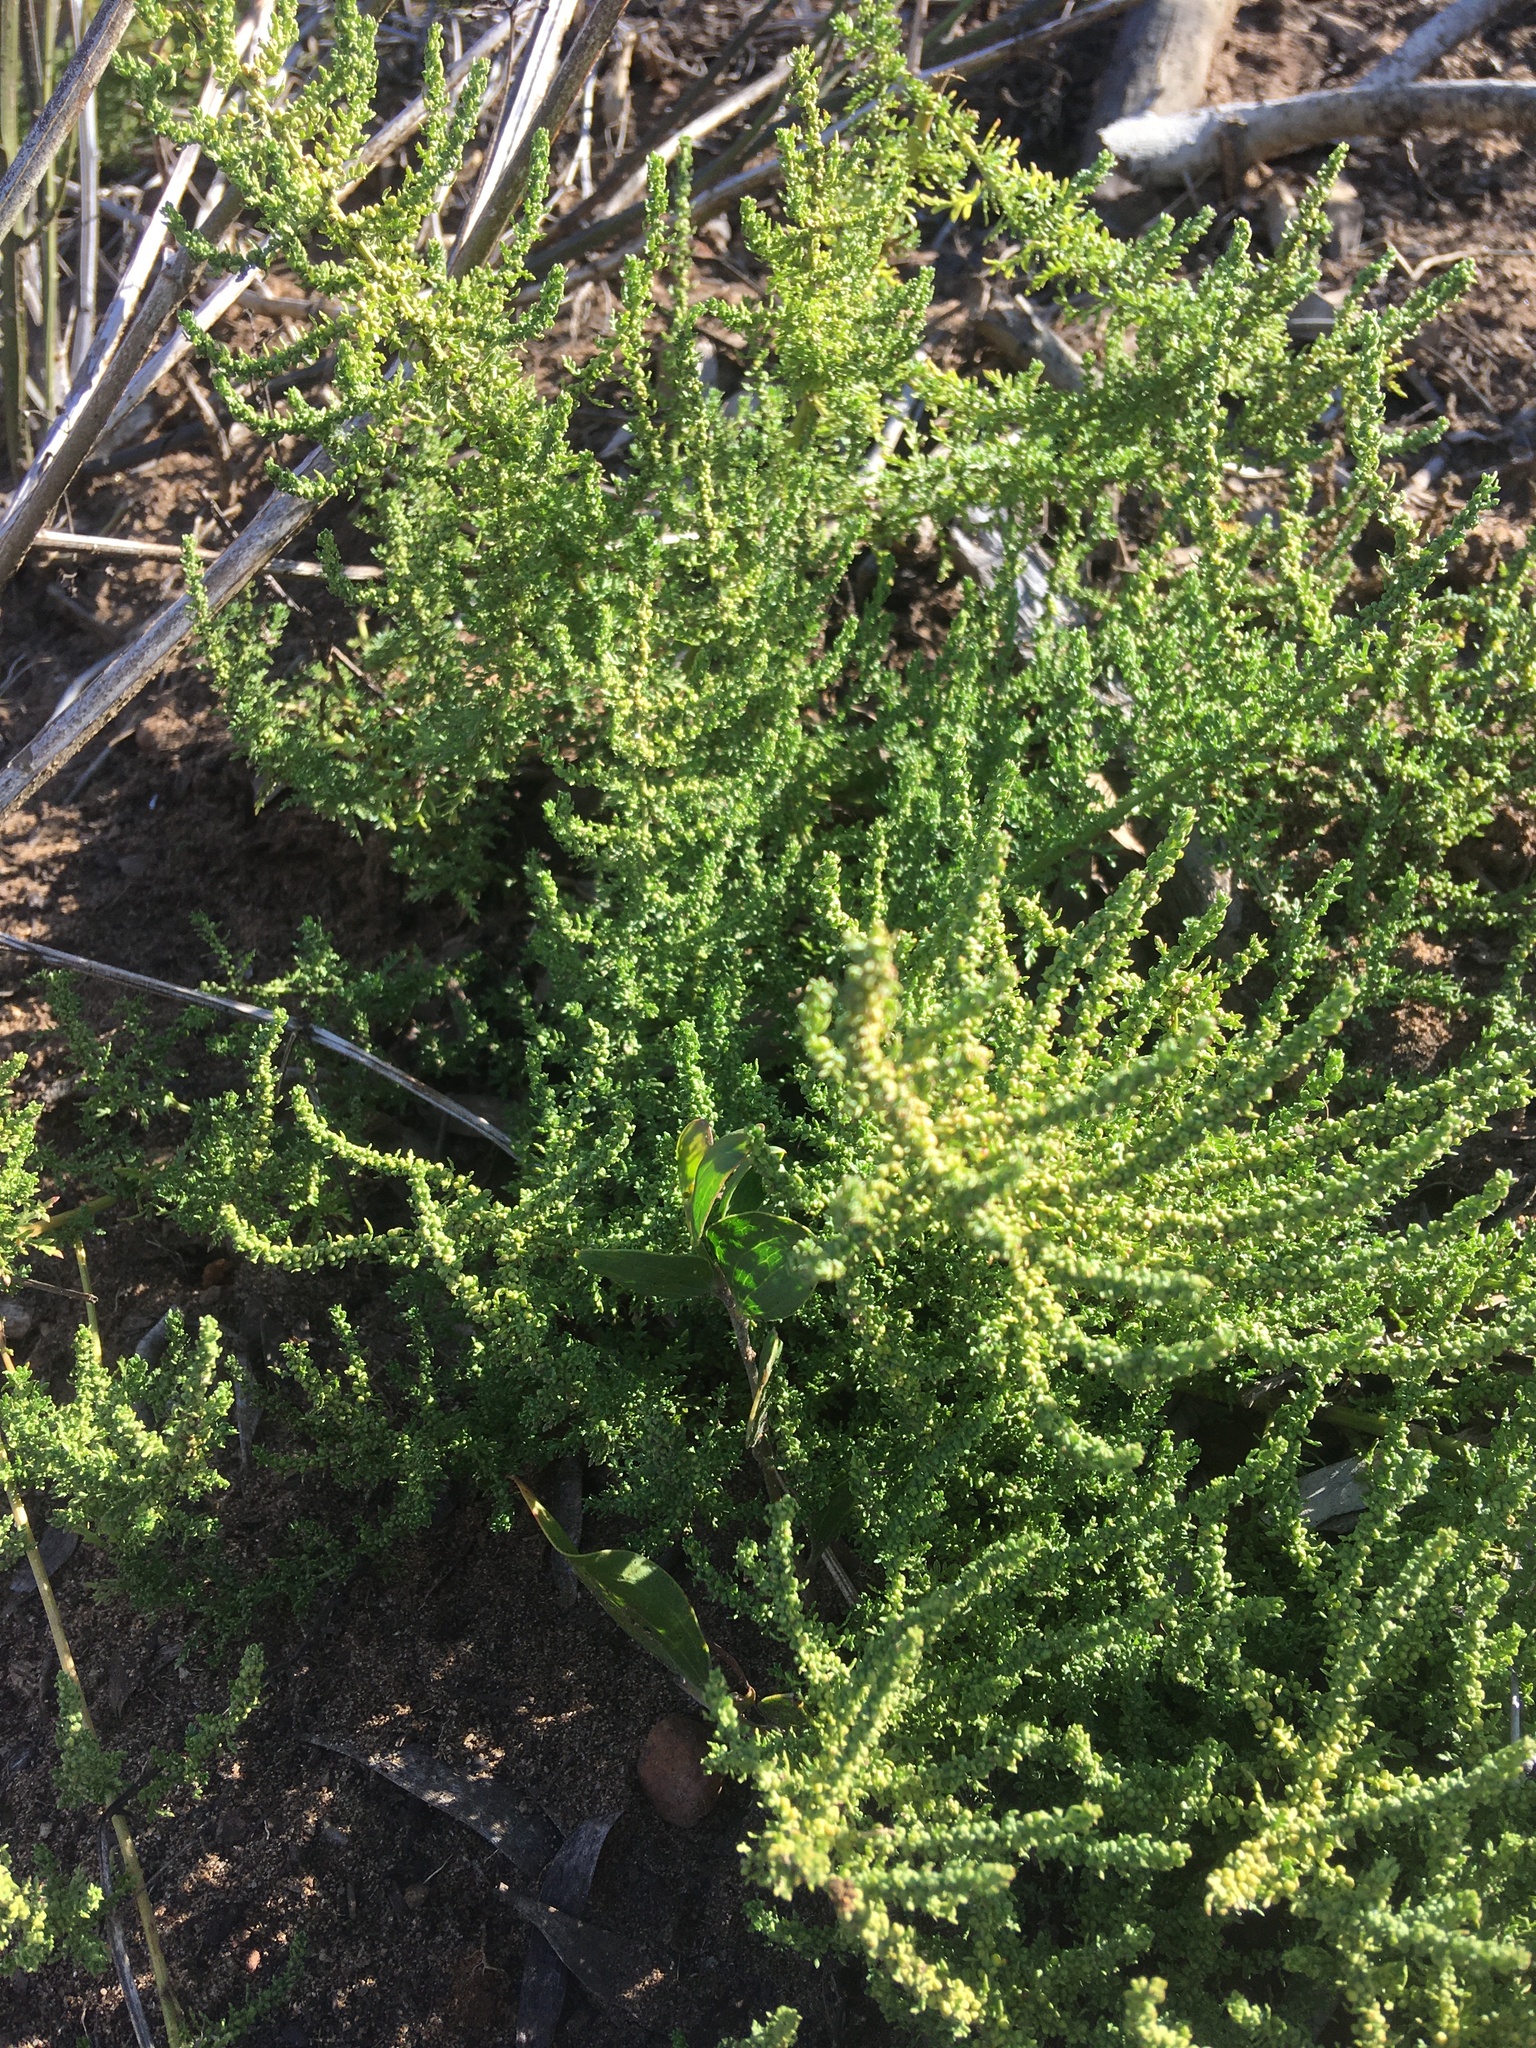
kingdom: Plantae
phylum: Tracheophyta
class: Magnoliopsida
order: Caryophyllales
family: Amaranthaceae
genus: Dysphania
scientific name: Dysphania multifida
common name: Cutleaf goosefoot
